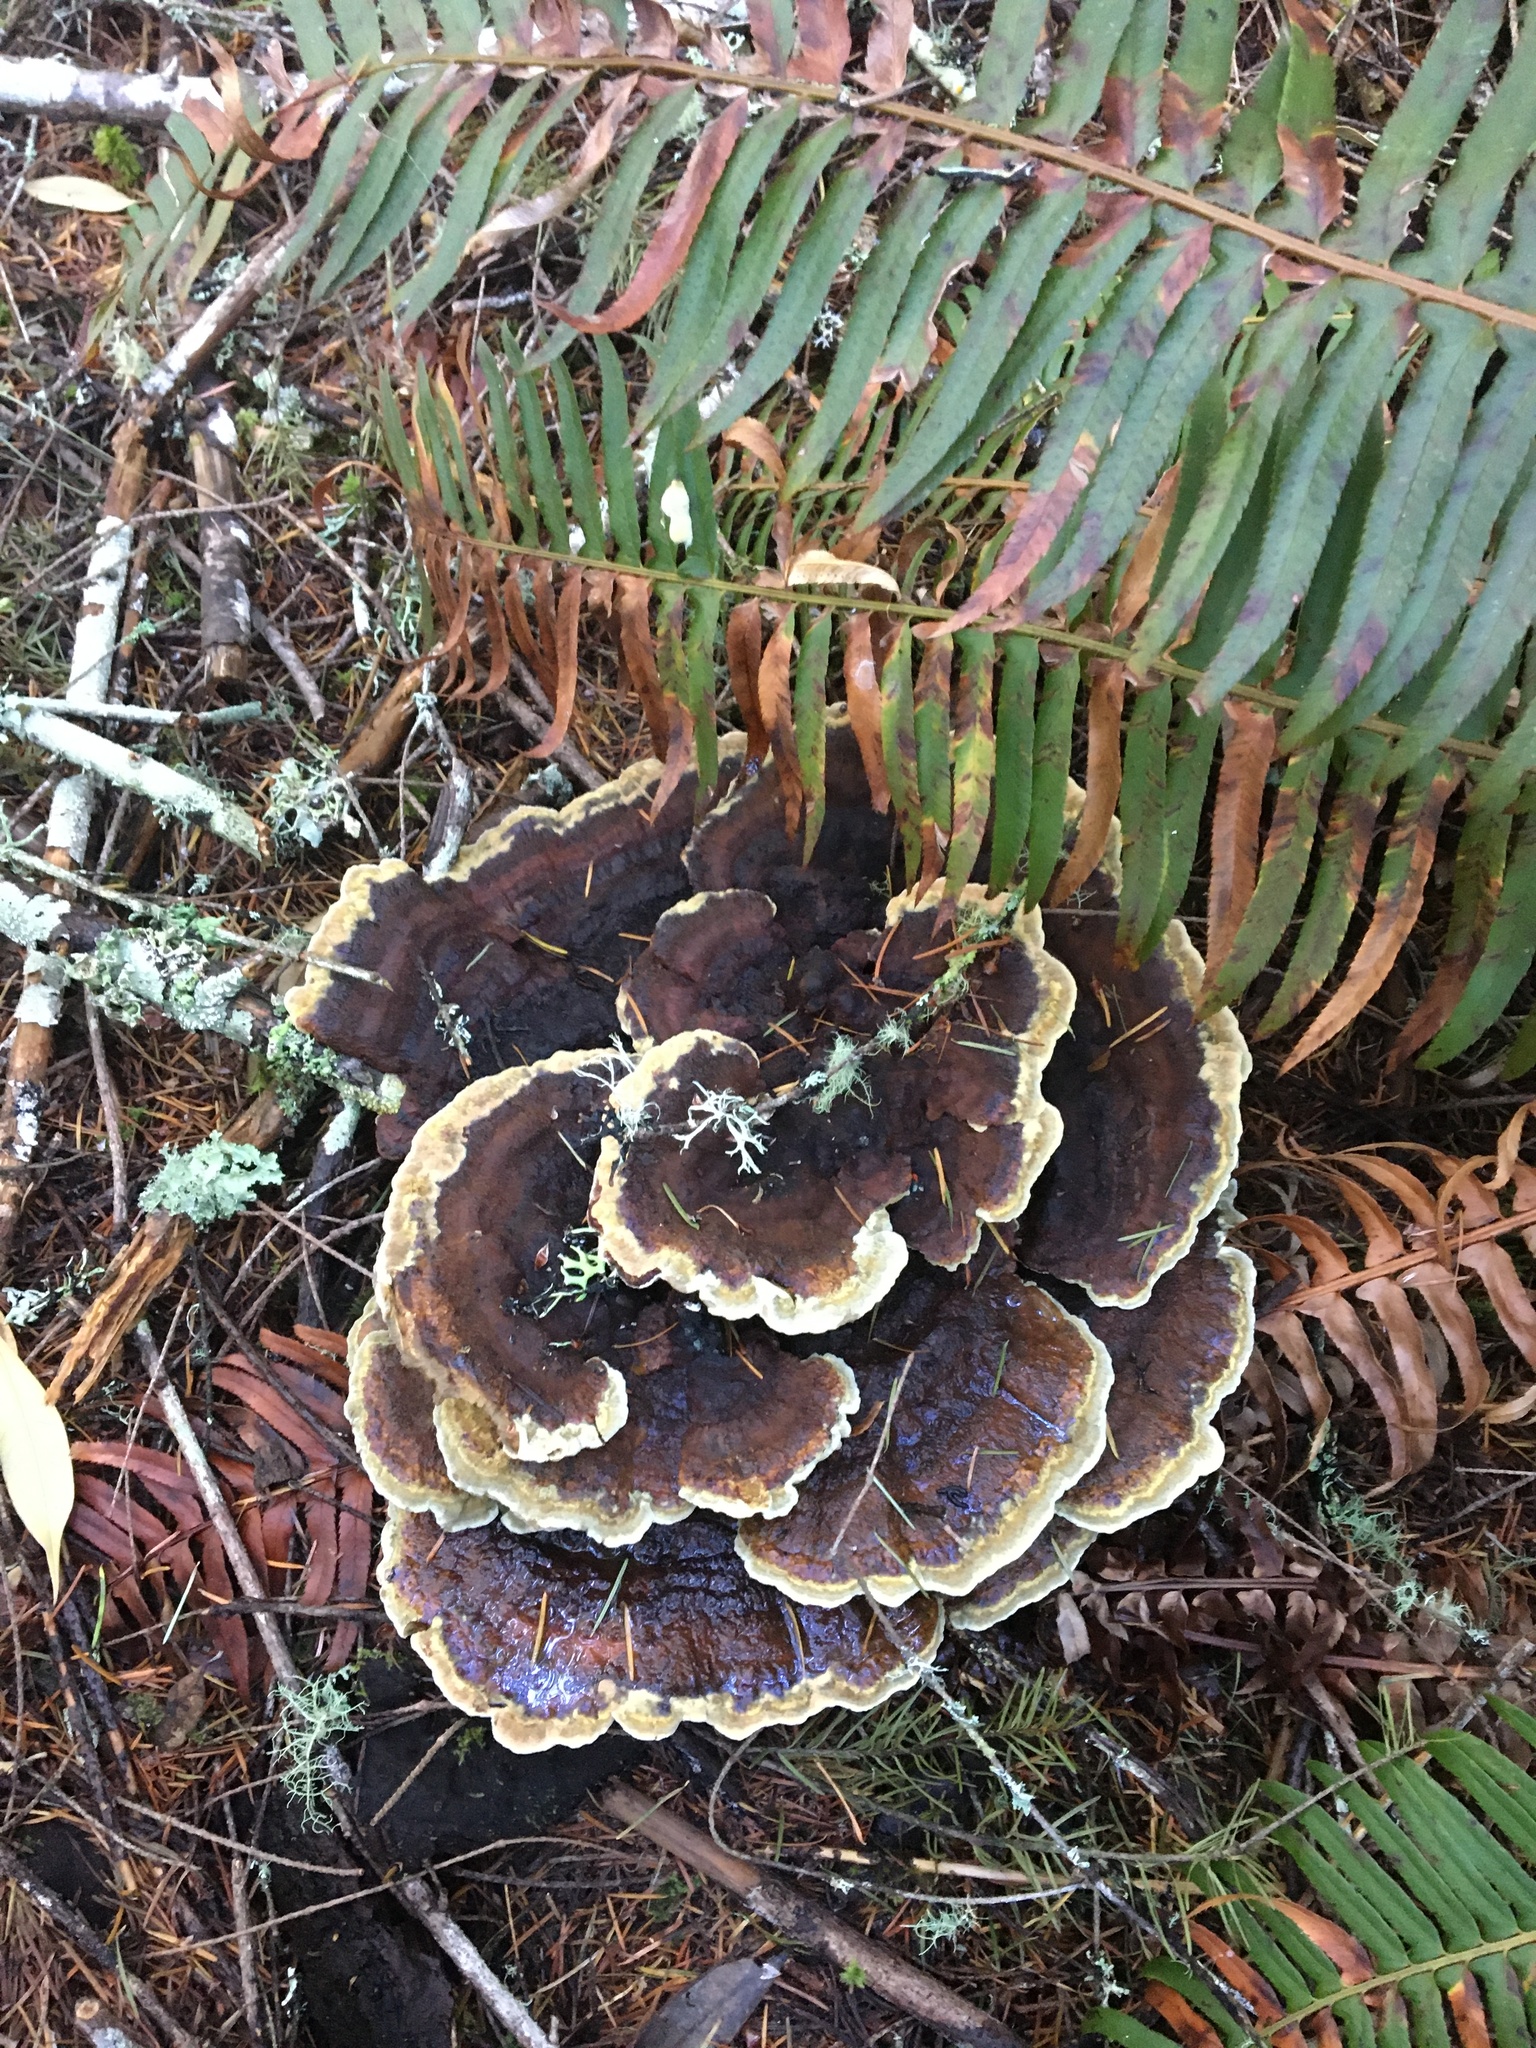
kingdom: Fungi
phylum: Basidiomycota
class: Agaricomycetes
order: Polyporales
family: Laetiporaceae
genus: Phaeolus
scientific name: Phaeolus schweinitzii
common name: Dyer's mazegill
